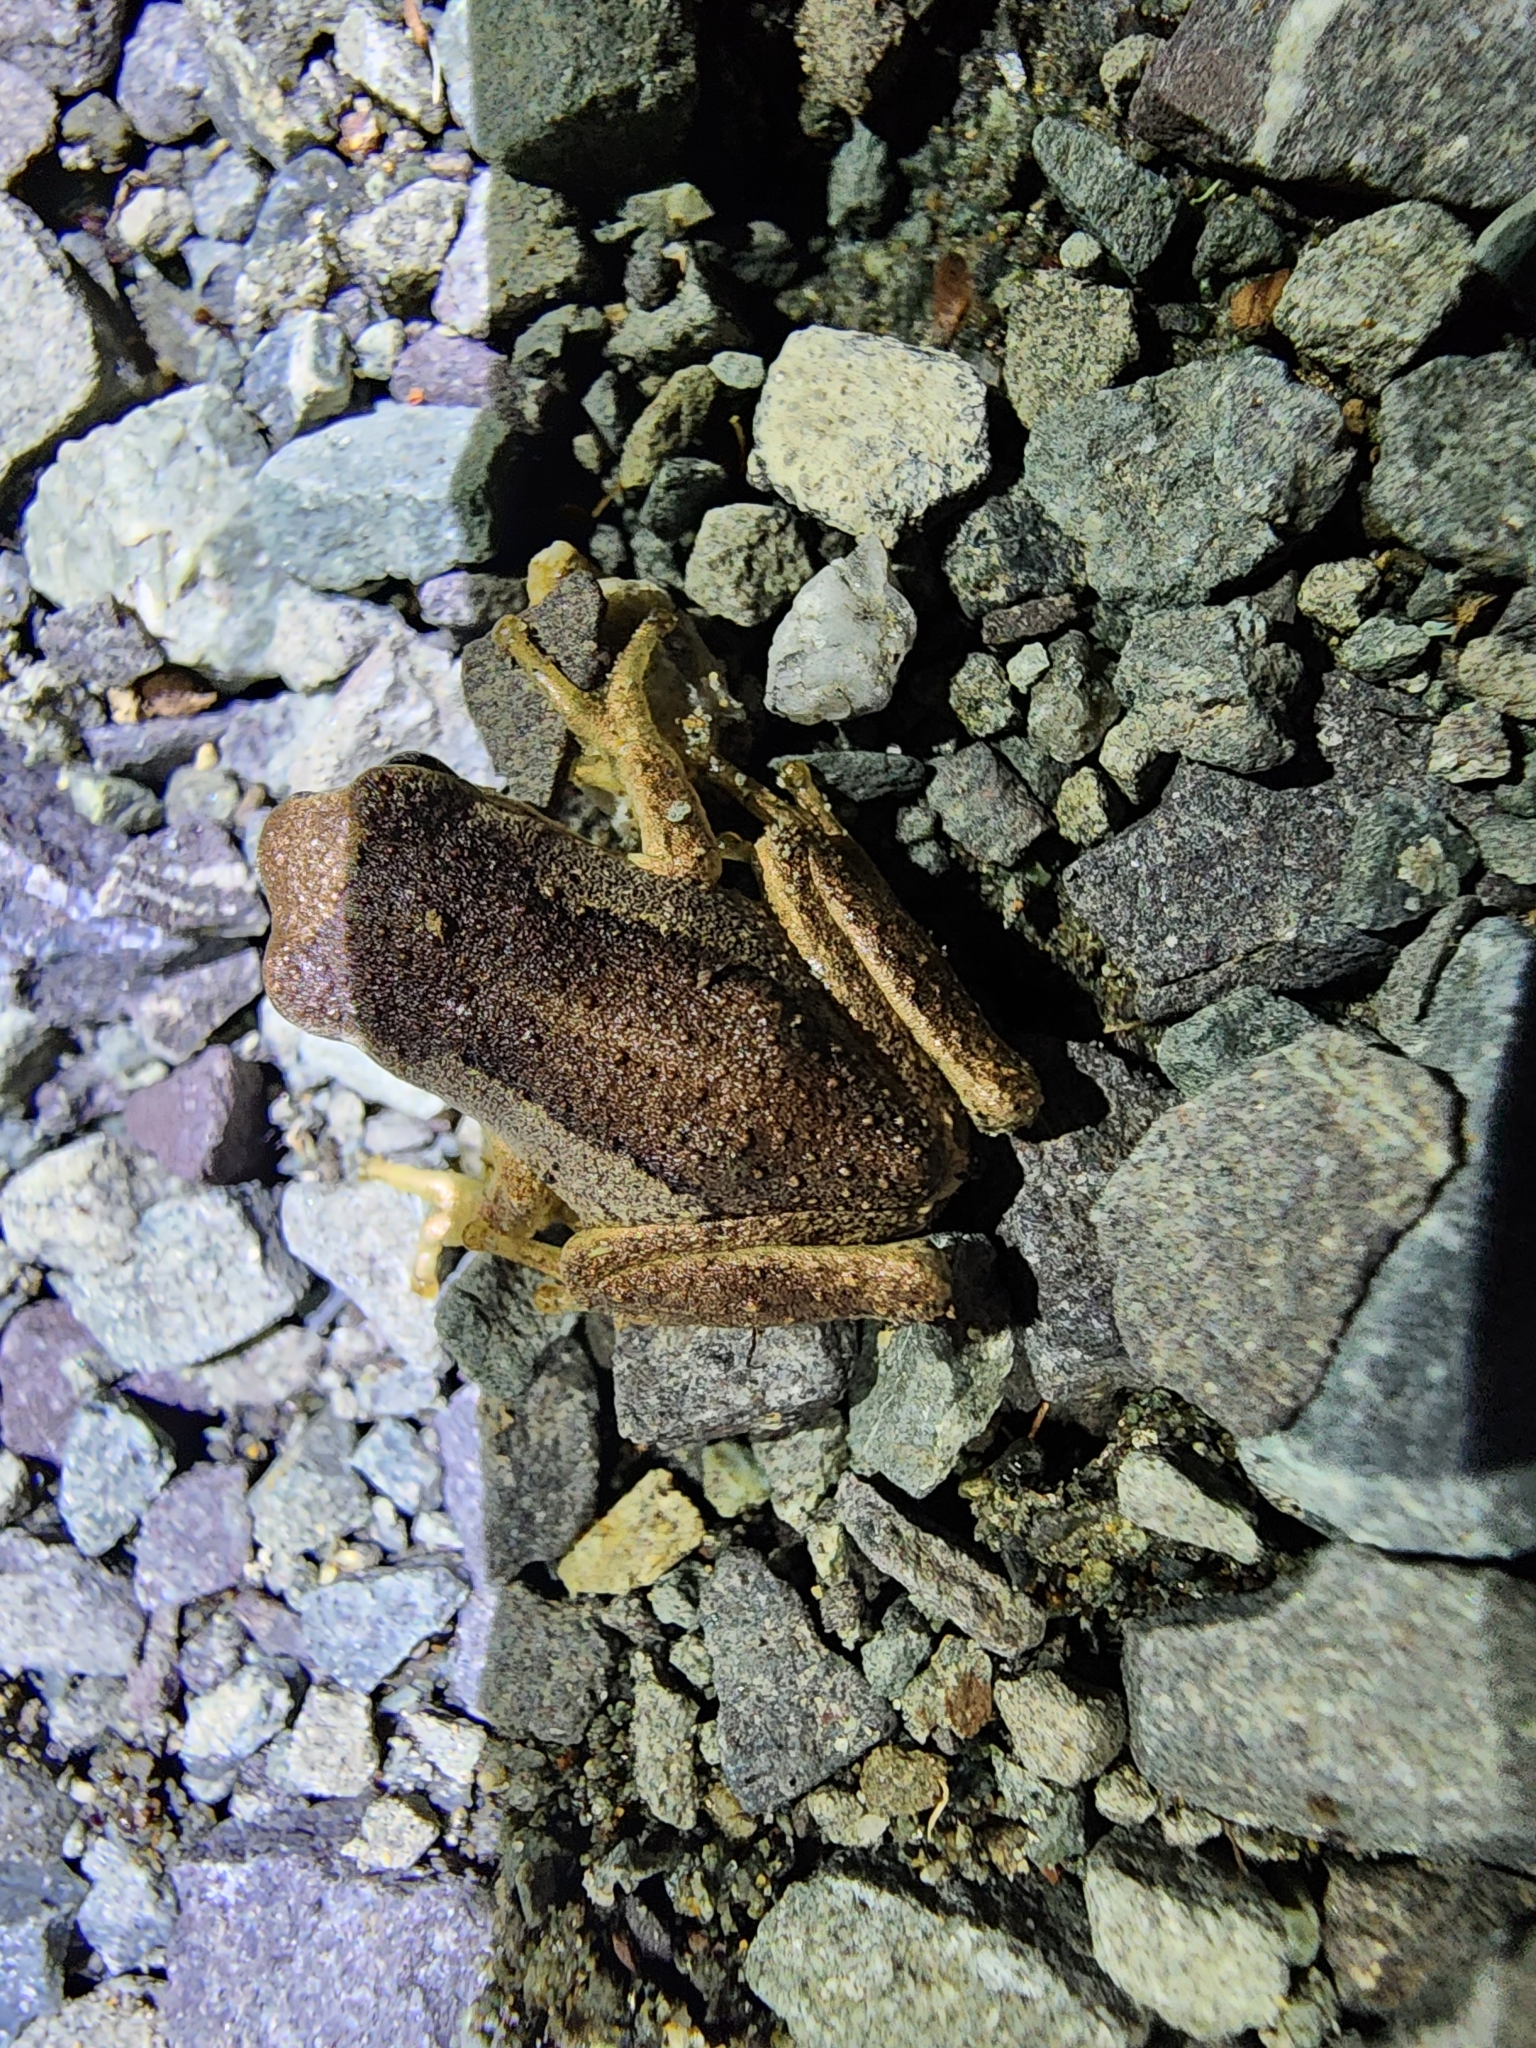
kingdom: Animalia
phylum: Chordata
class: Amphibia
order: Anura
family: Pelodryadidae
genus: Litoria
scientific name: Litoria ewingii
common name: Southern brown tree frog
